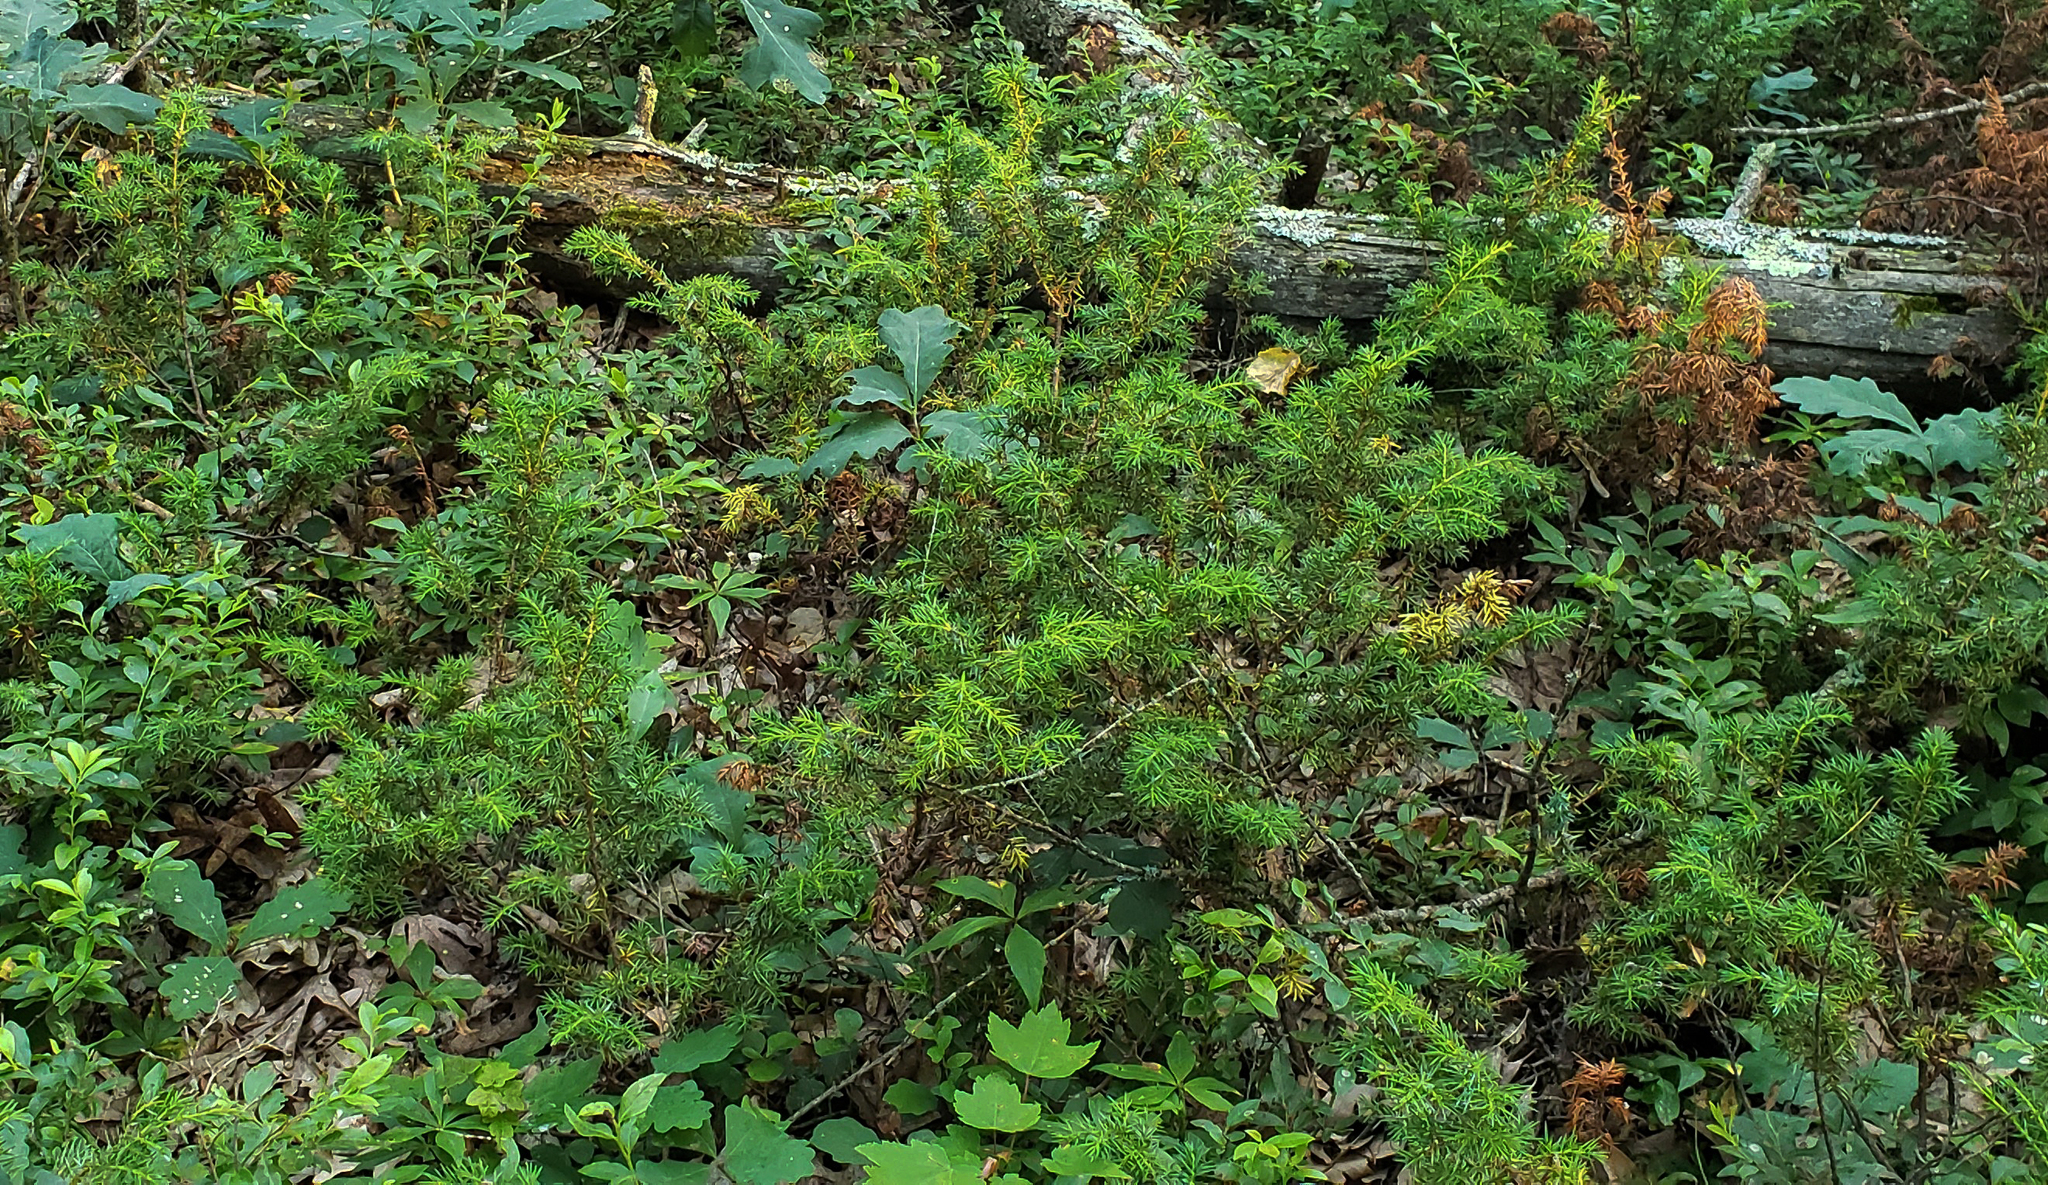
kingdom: Plantae
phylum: Tracheophyta
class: Pinopsida
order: Pinales
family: Cupressaceae
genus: Juniperus
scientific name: Juniperus communis
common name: Common juniper
